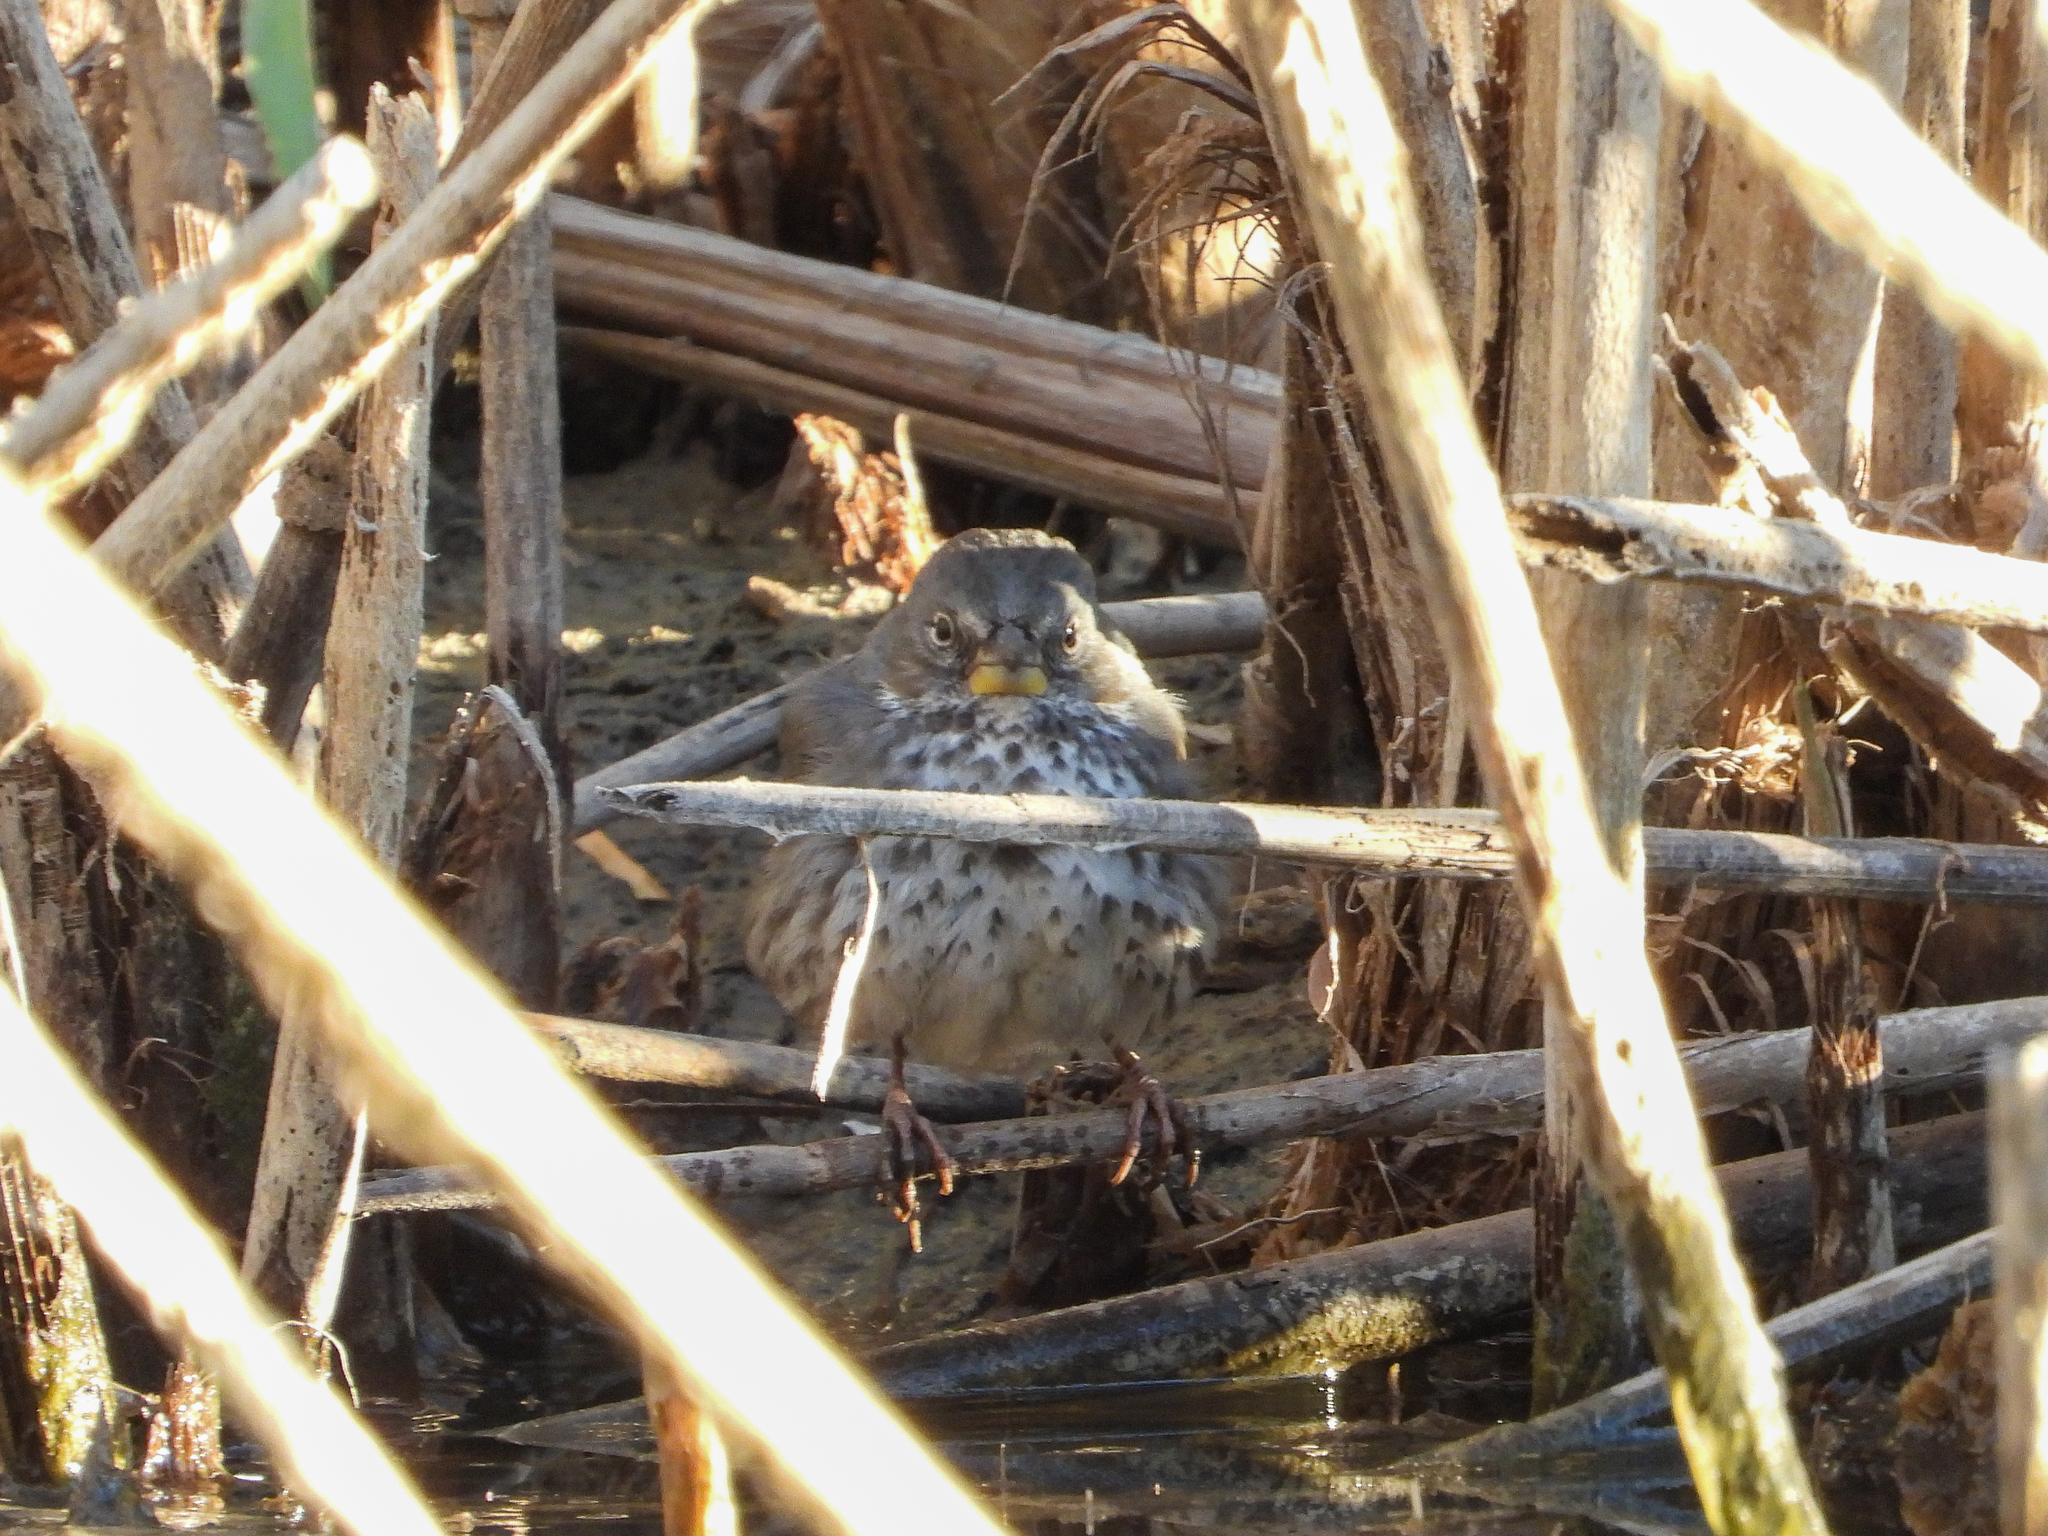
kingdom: Animalia
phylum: Chordata
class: Aves
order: Passeriformes
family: Passerellidae
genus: Passerella
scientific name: Passerella iliaca
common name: Fox sparrow
